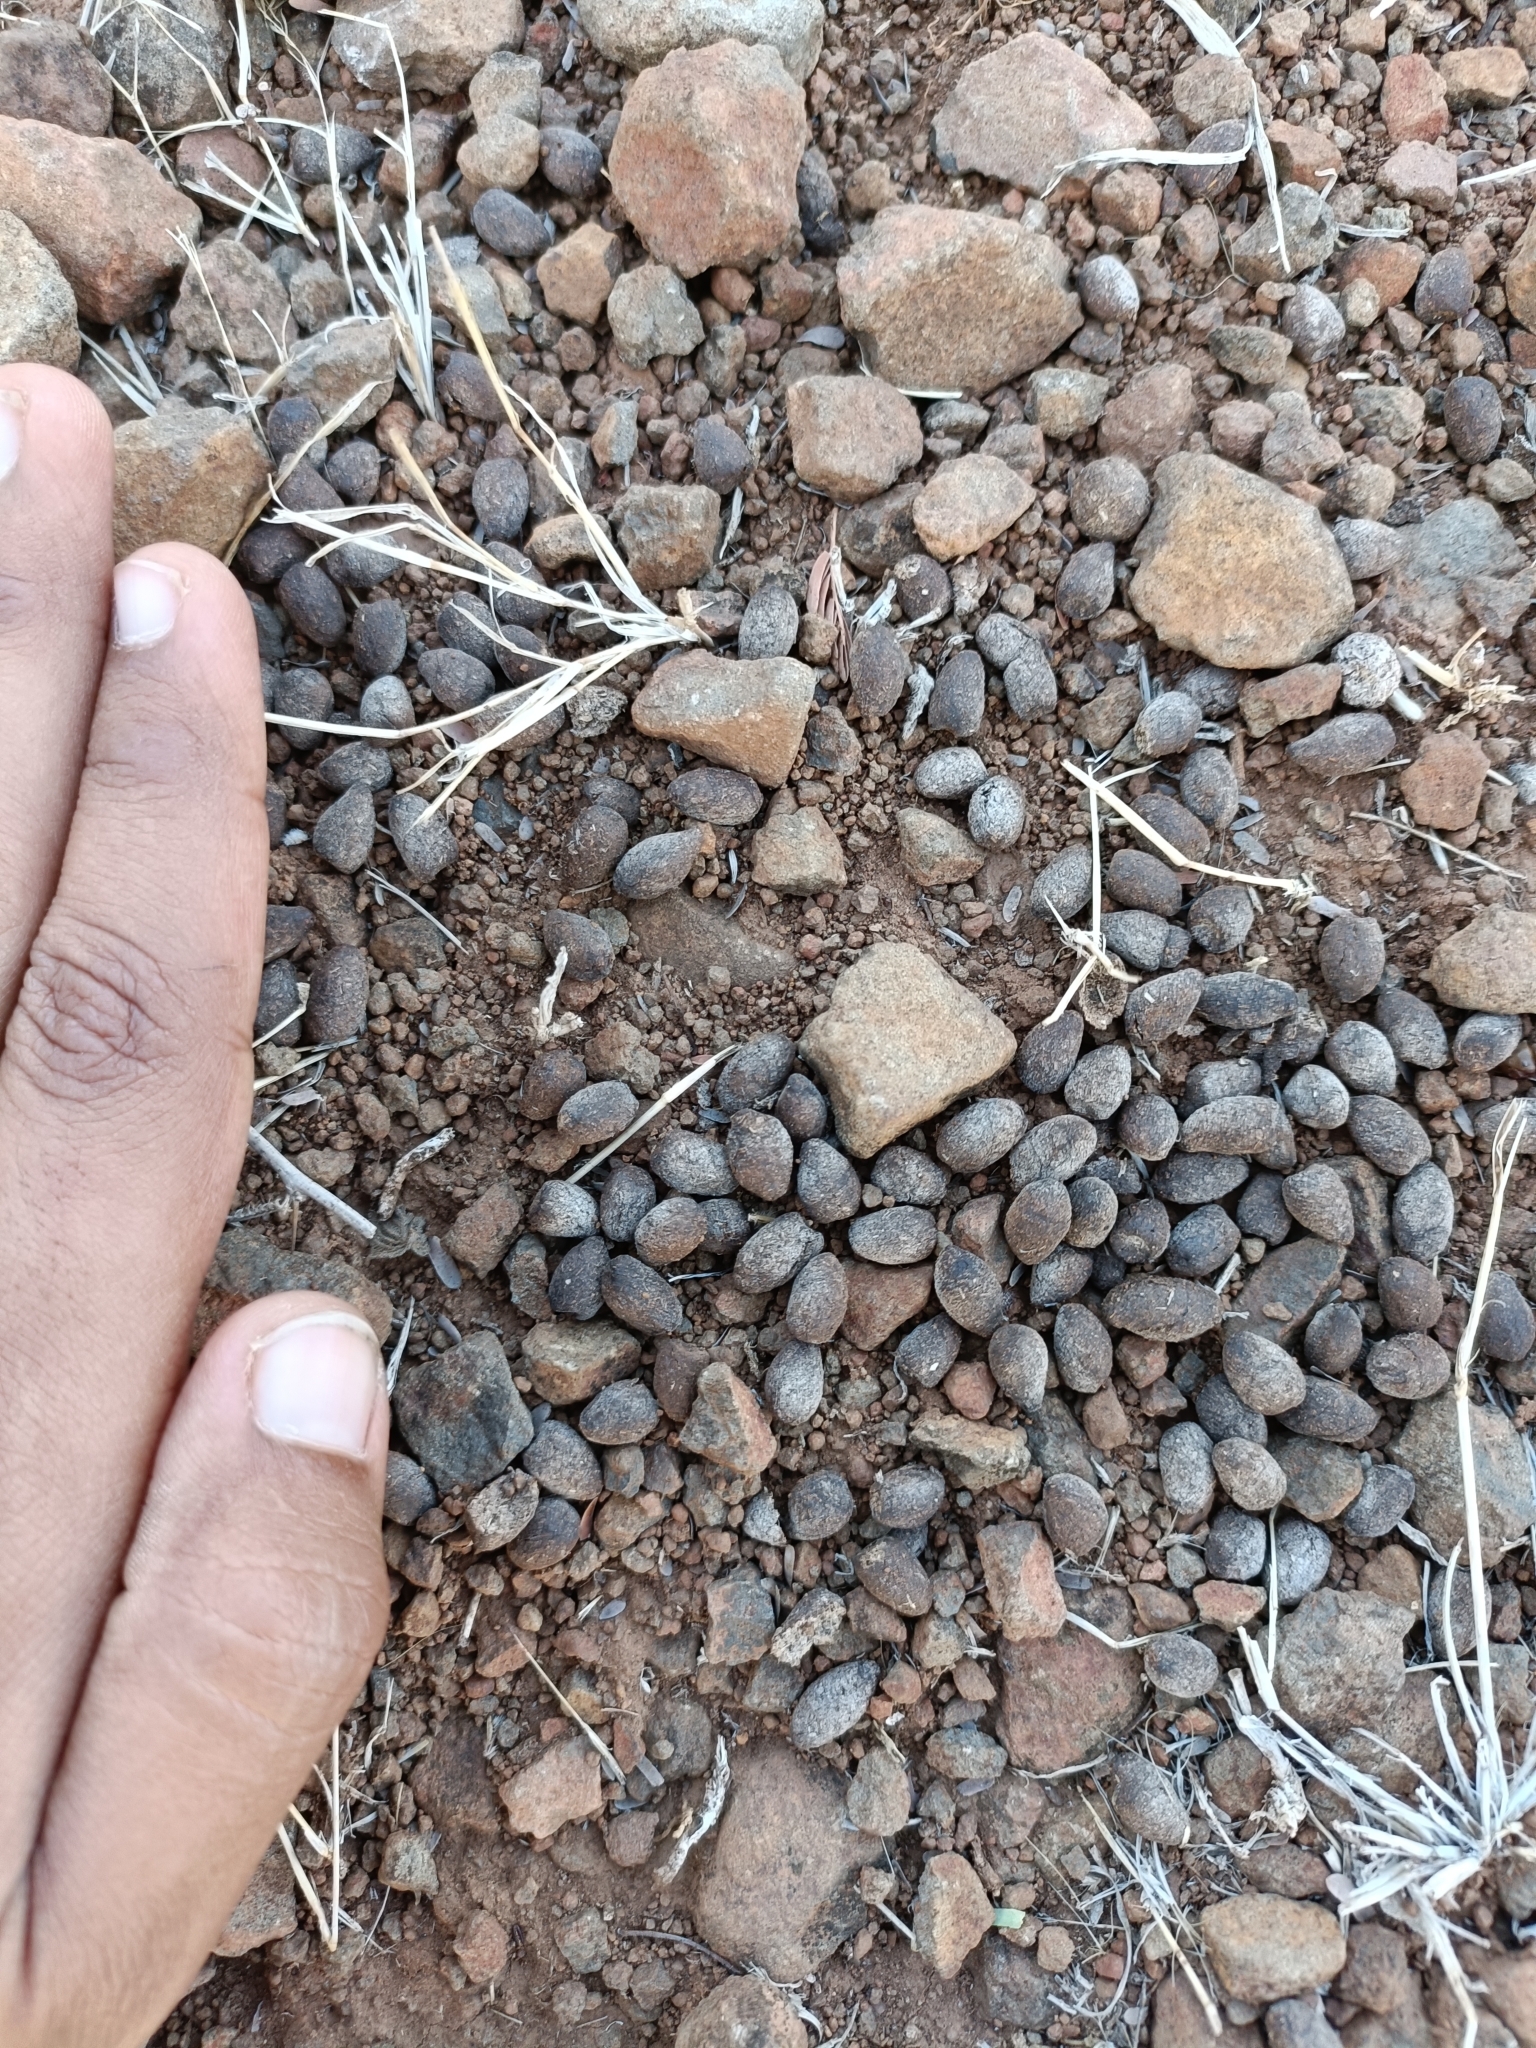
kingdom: Animalia
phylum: Chordata
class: Mammalia
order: Artiodactyla
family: Bovidae
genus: Gazella
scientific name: Gazella bennettii
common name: Indian gazelle
